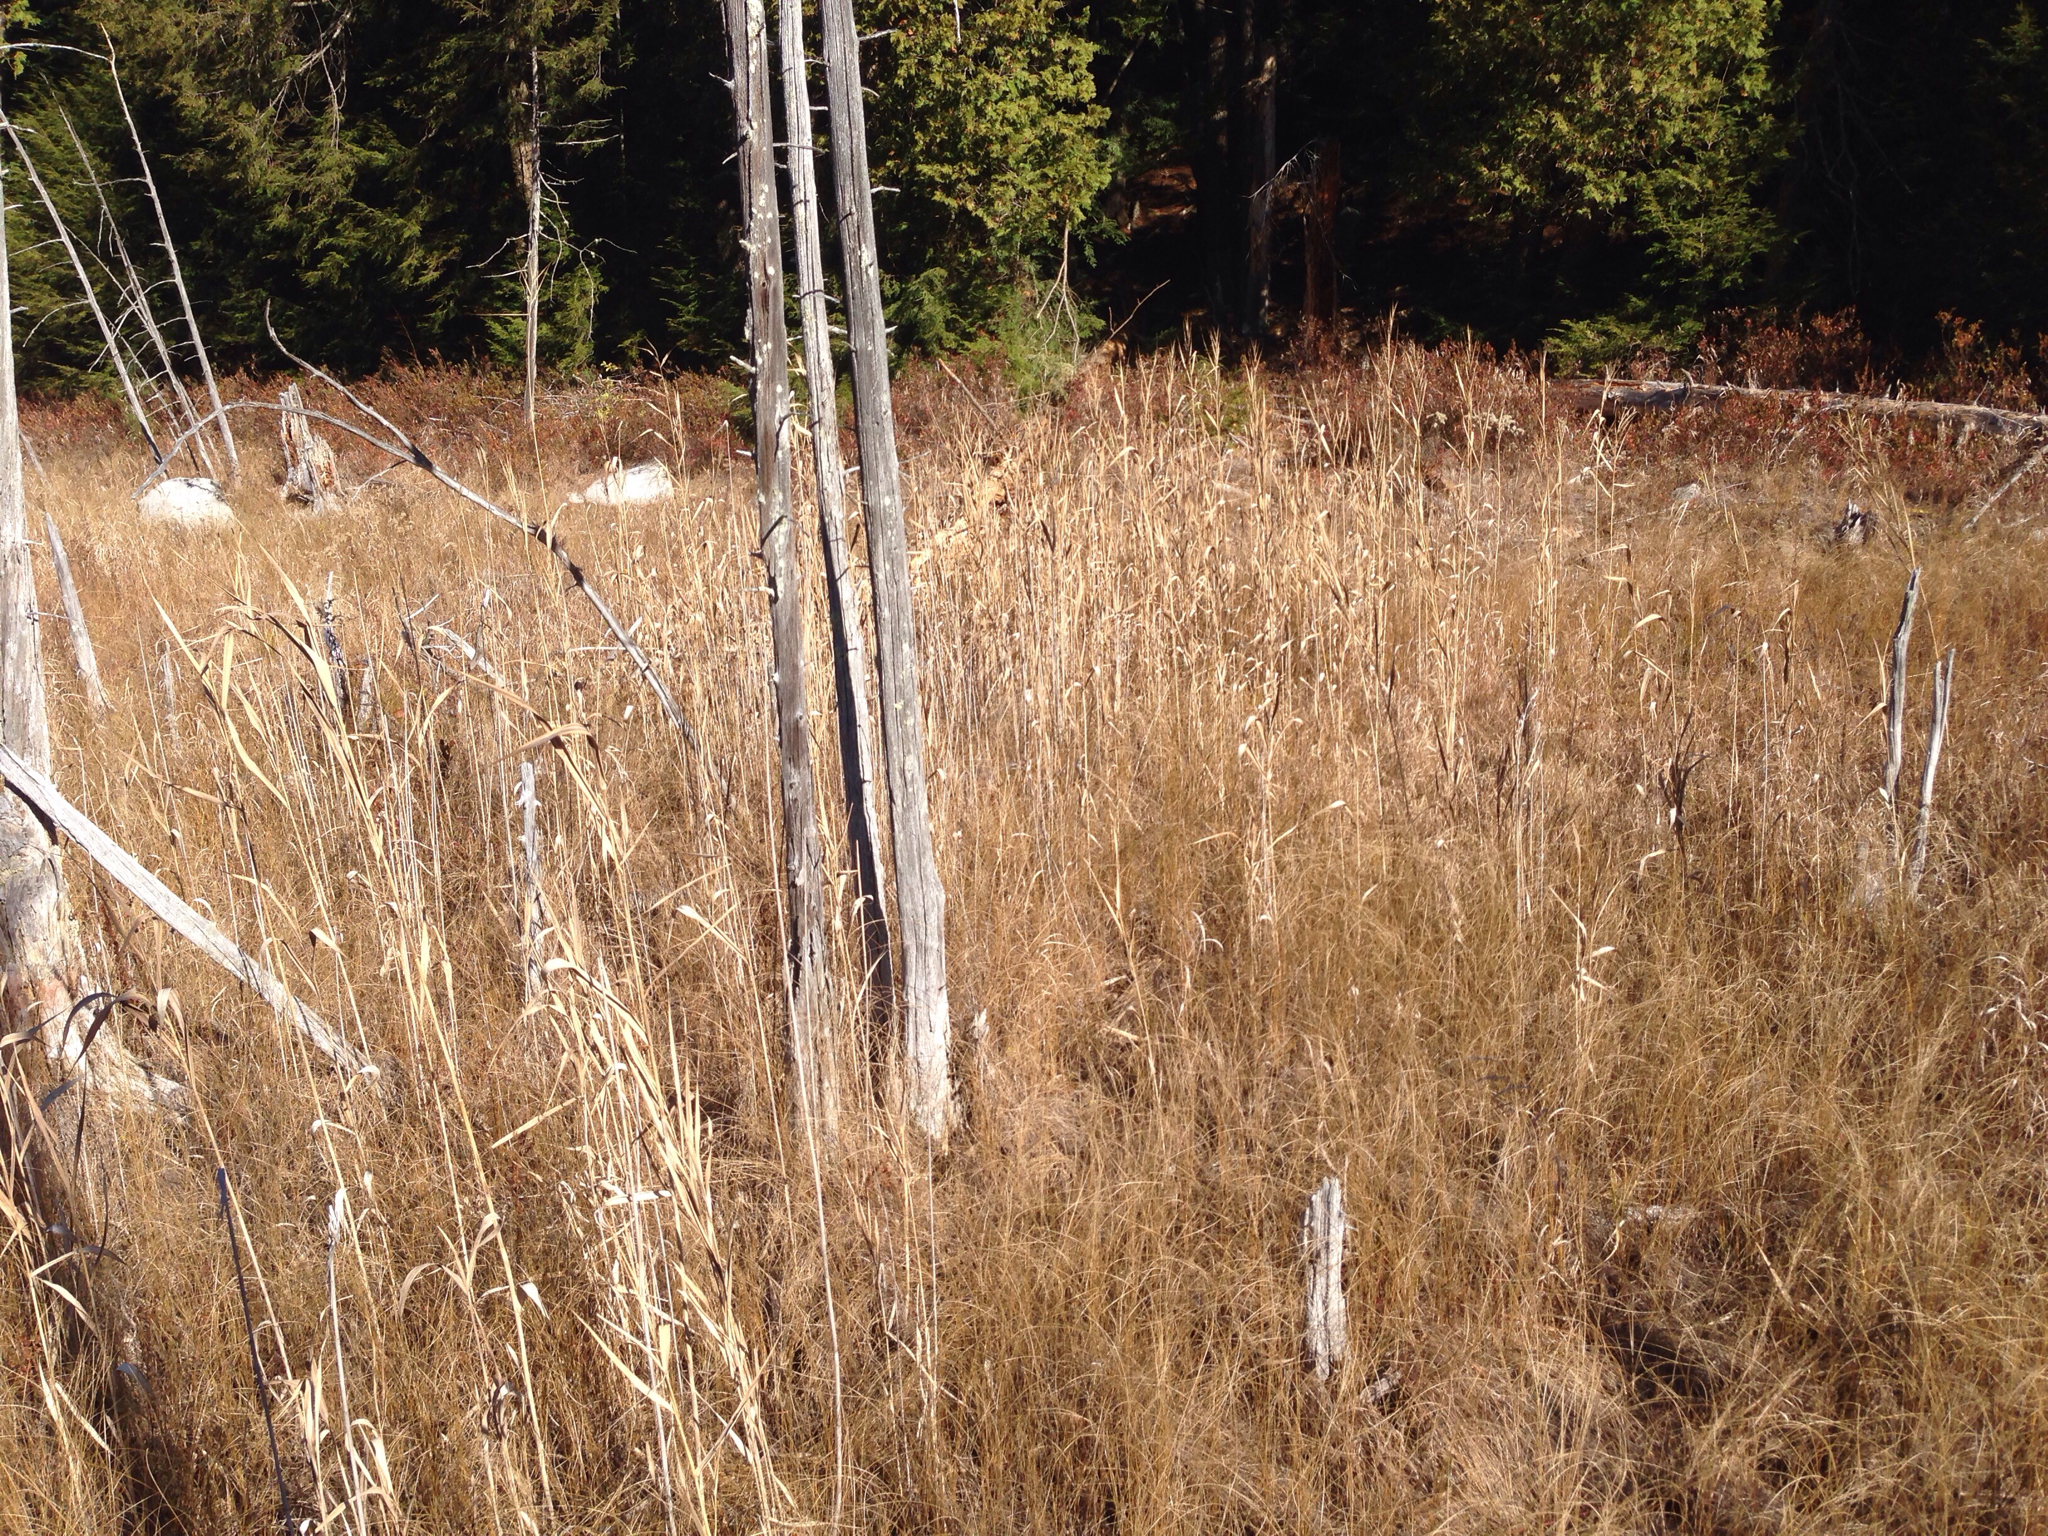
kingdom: Plantae
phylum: Tracheophyta
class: Liliopsida
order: Poales
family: Poaceae
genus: Phragmites
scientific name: Phragmites australis
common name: Common reed
